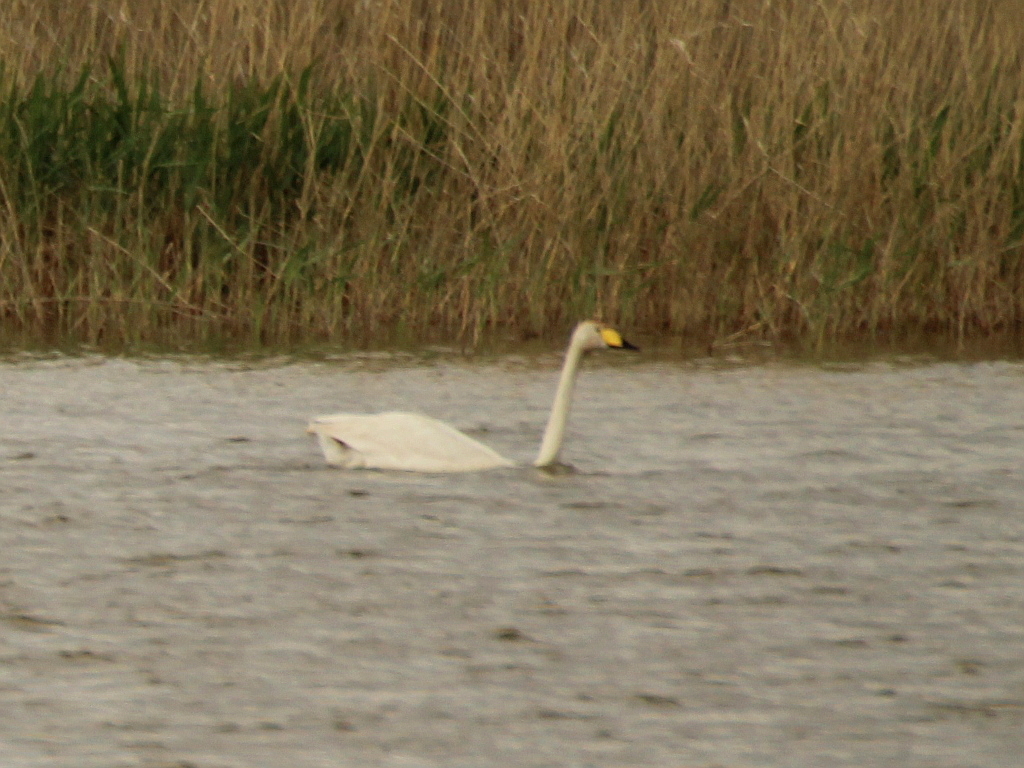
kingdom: Animalia
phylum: Chordata
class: Aves
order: Anseriformes
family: Anatidae
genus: Cygnus
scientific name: Cygnus cygnus
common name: Whooper swan
